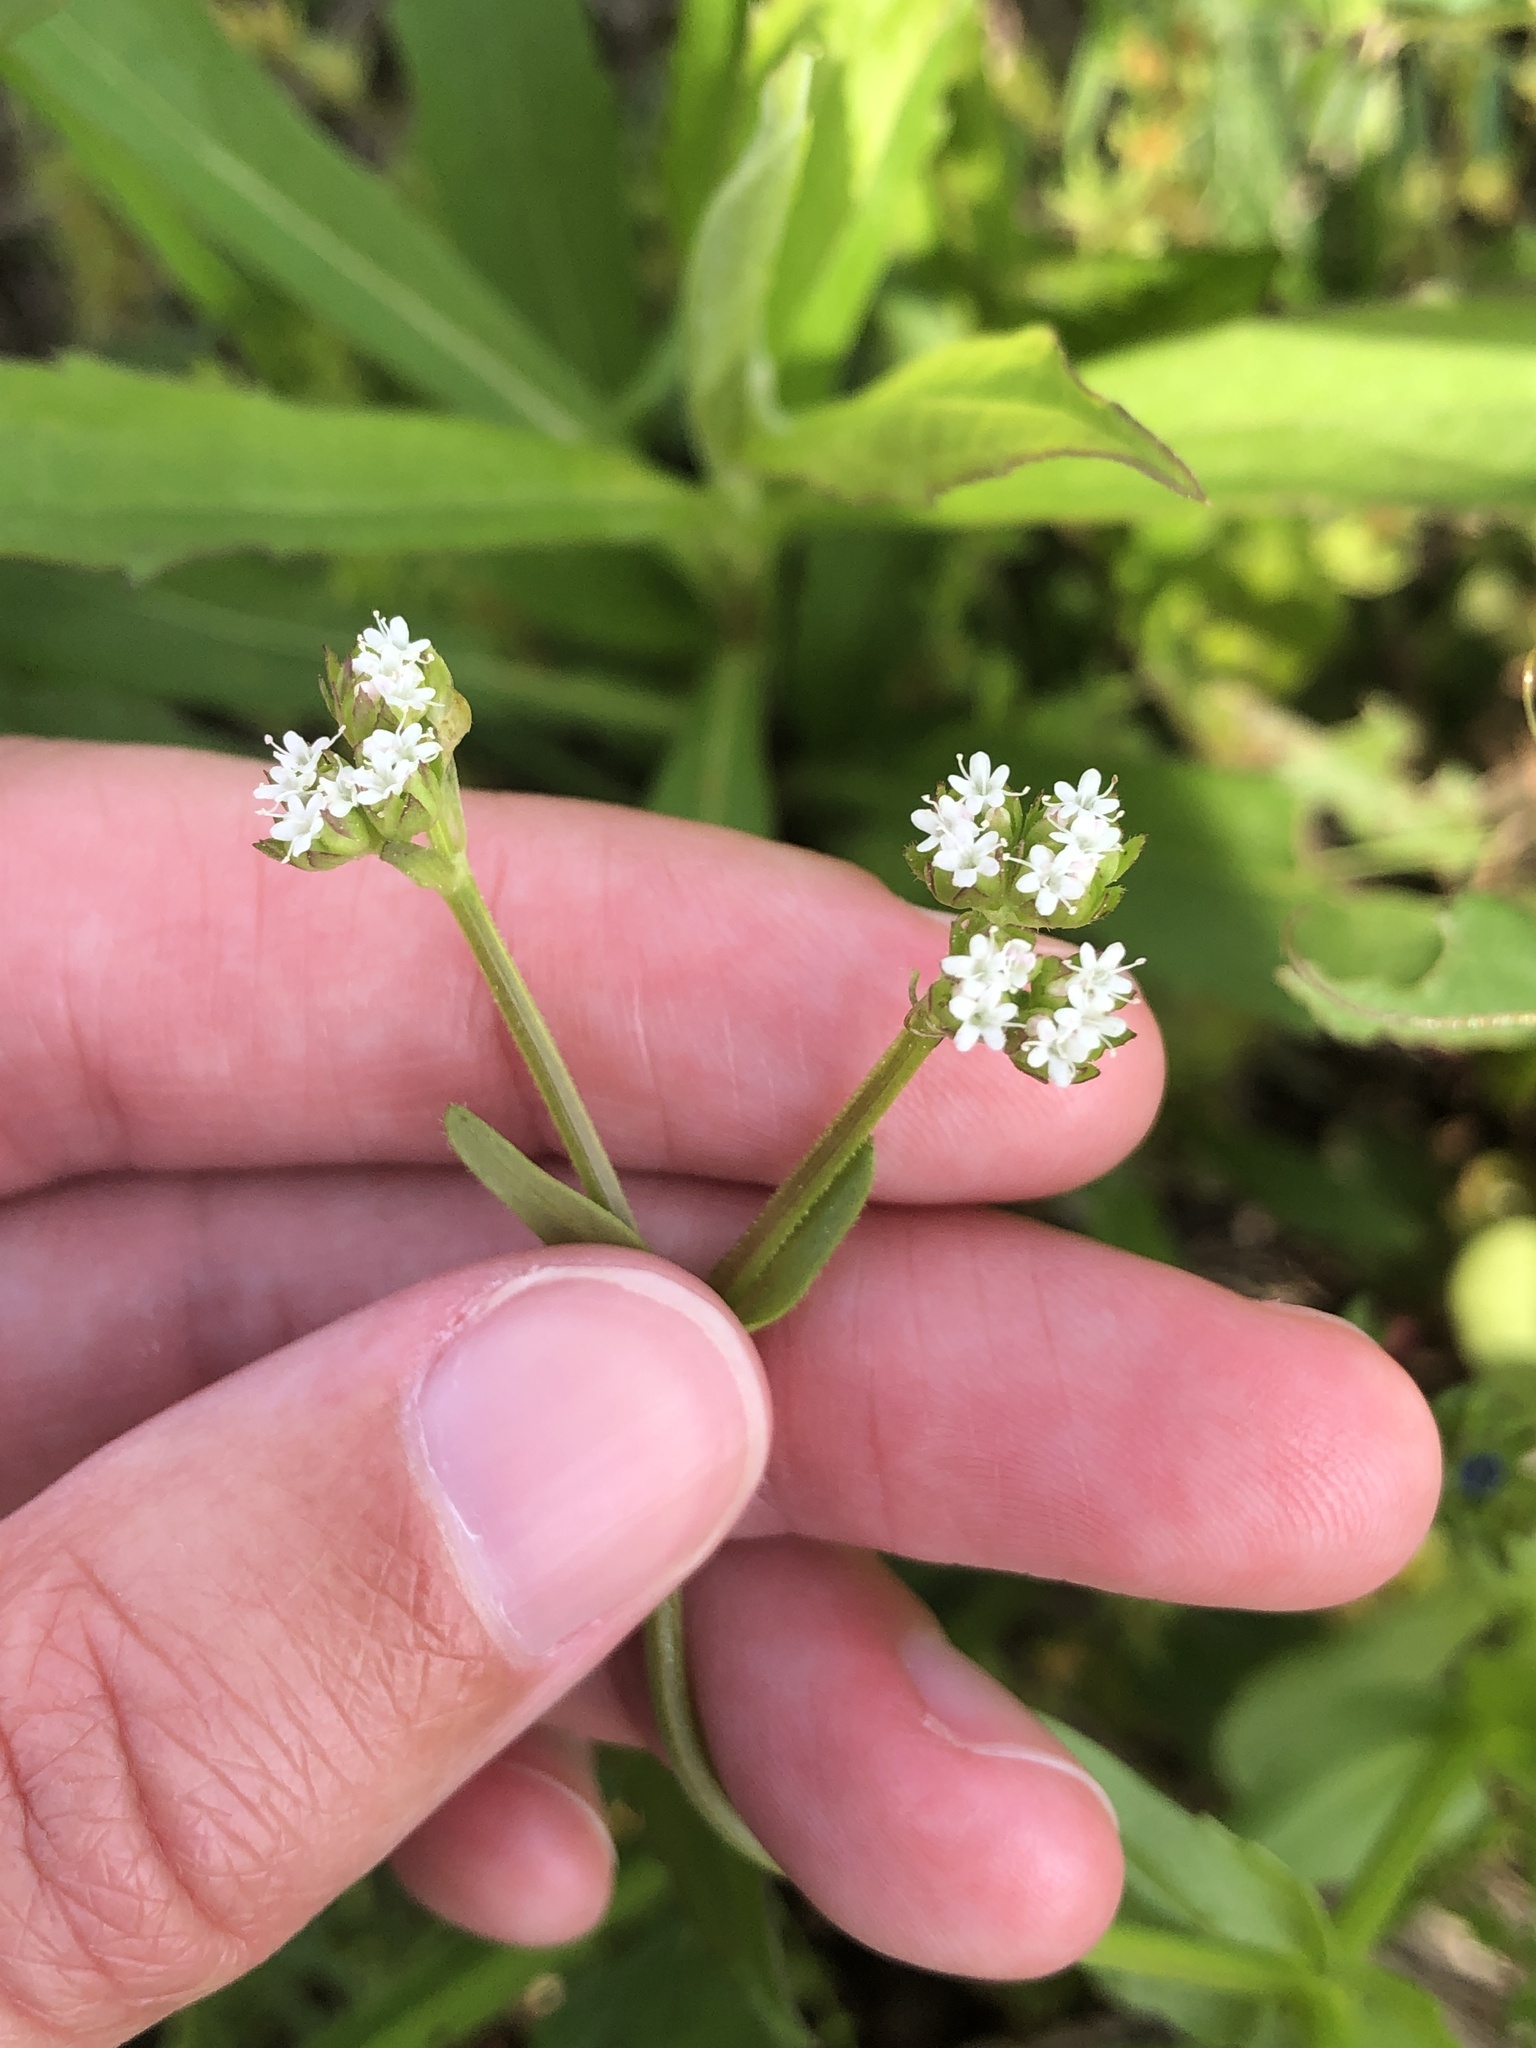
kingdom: Plantae
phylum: Tracheophyta
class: Magnoliopsida
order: Dipsacales
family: Caprifoliaceae
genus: Valerianella
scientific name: Valerianella radiata
